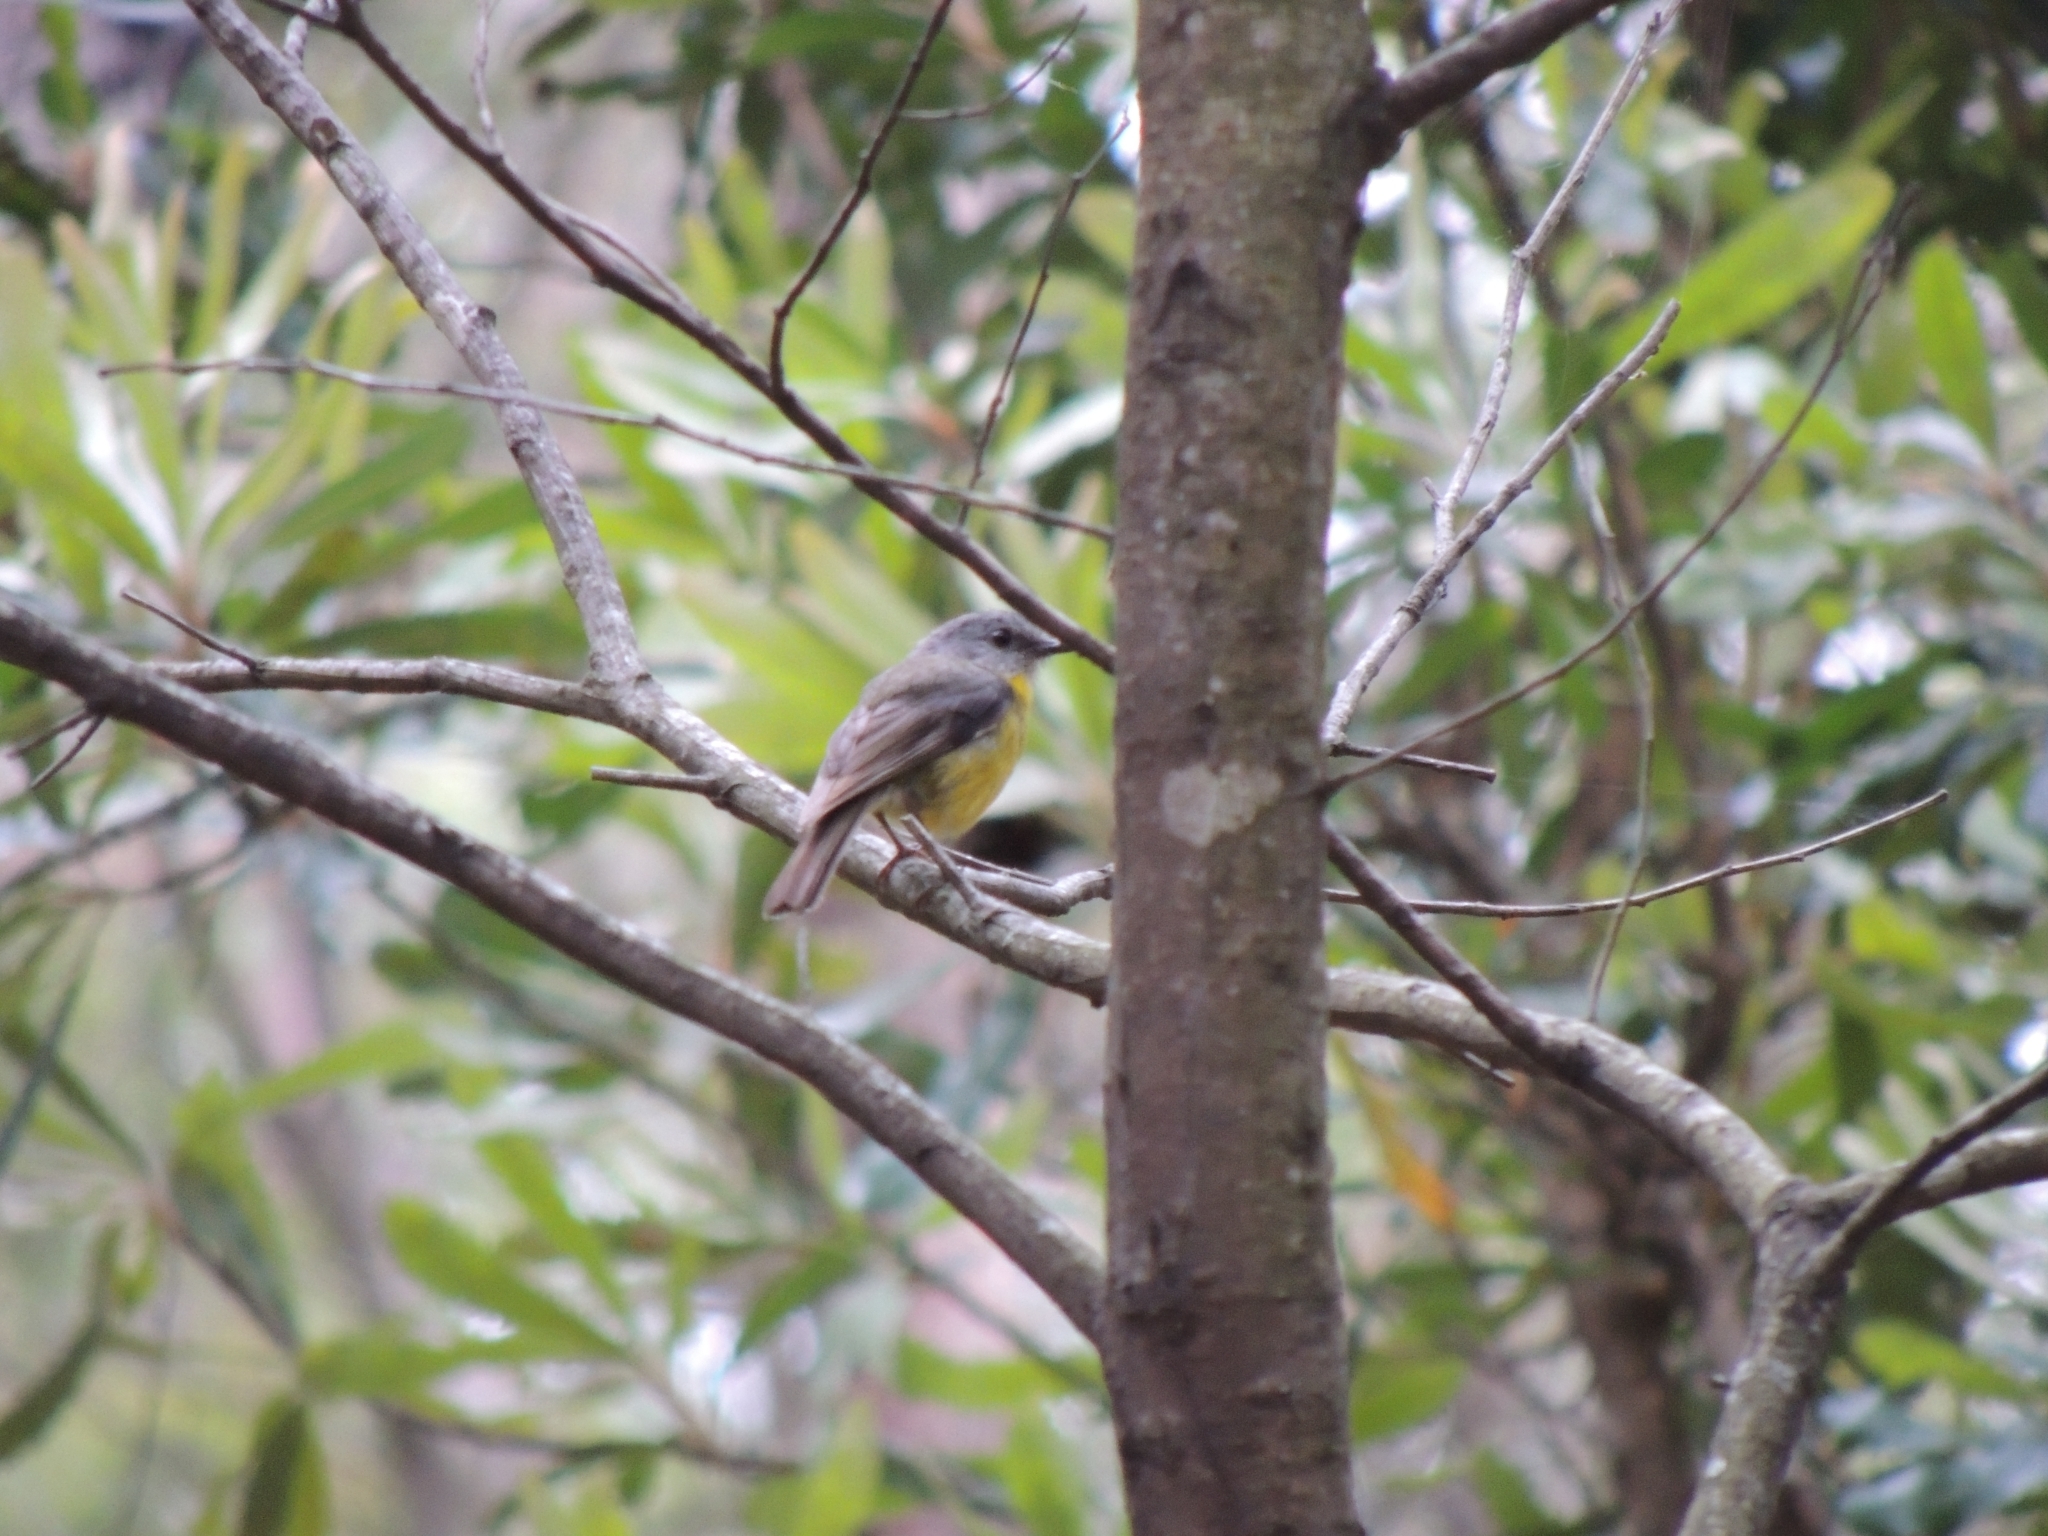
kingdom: Animalia
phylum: Chordata
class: Aves
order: Passeriformes
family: Petroicidae
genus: Eopsaltria
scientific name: Eopsaltria australis
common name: Eastern yellow robin
